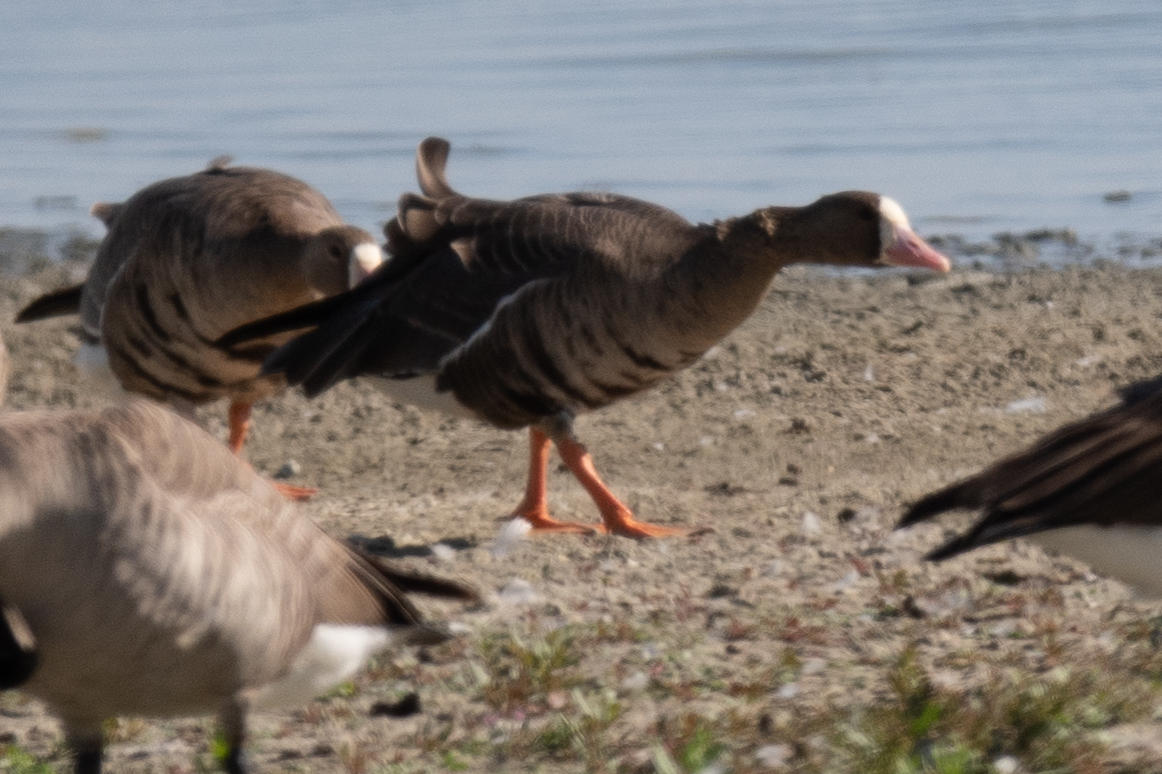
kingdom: Animalia
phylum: Chordata
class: Aves
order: Anseriformes
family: Anatidae
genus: Anser
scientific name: Anser albifrons
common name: Greater white-fronted goose
